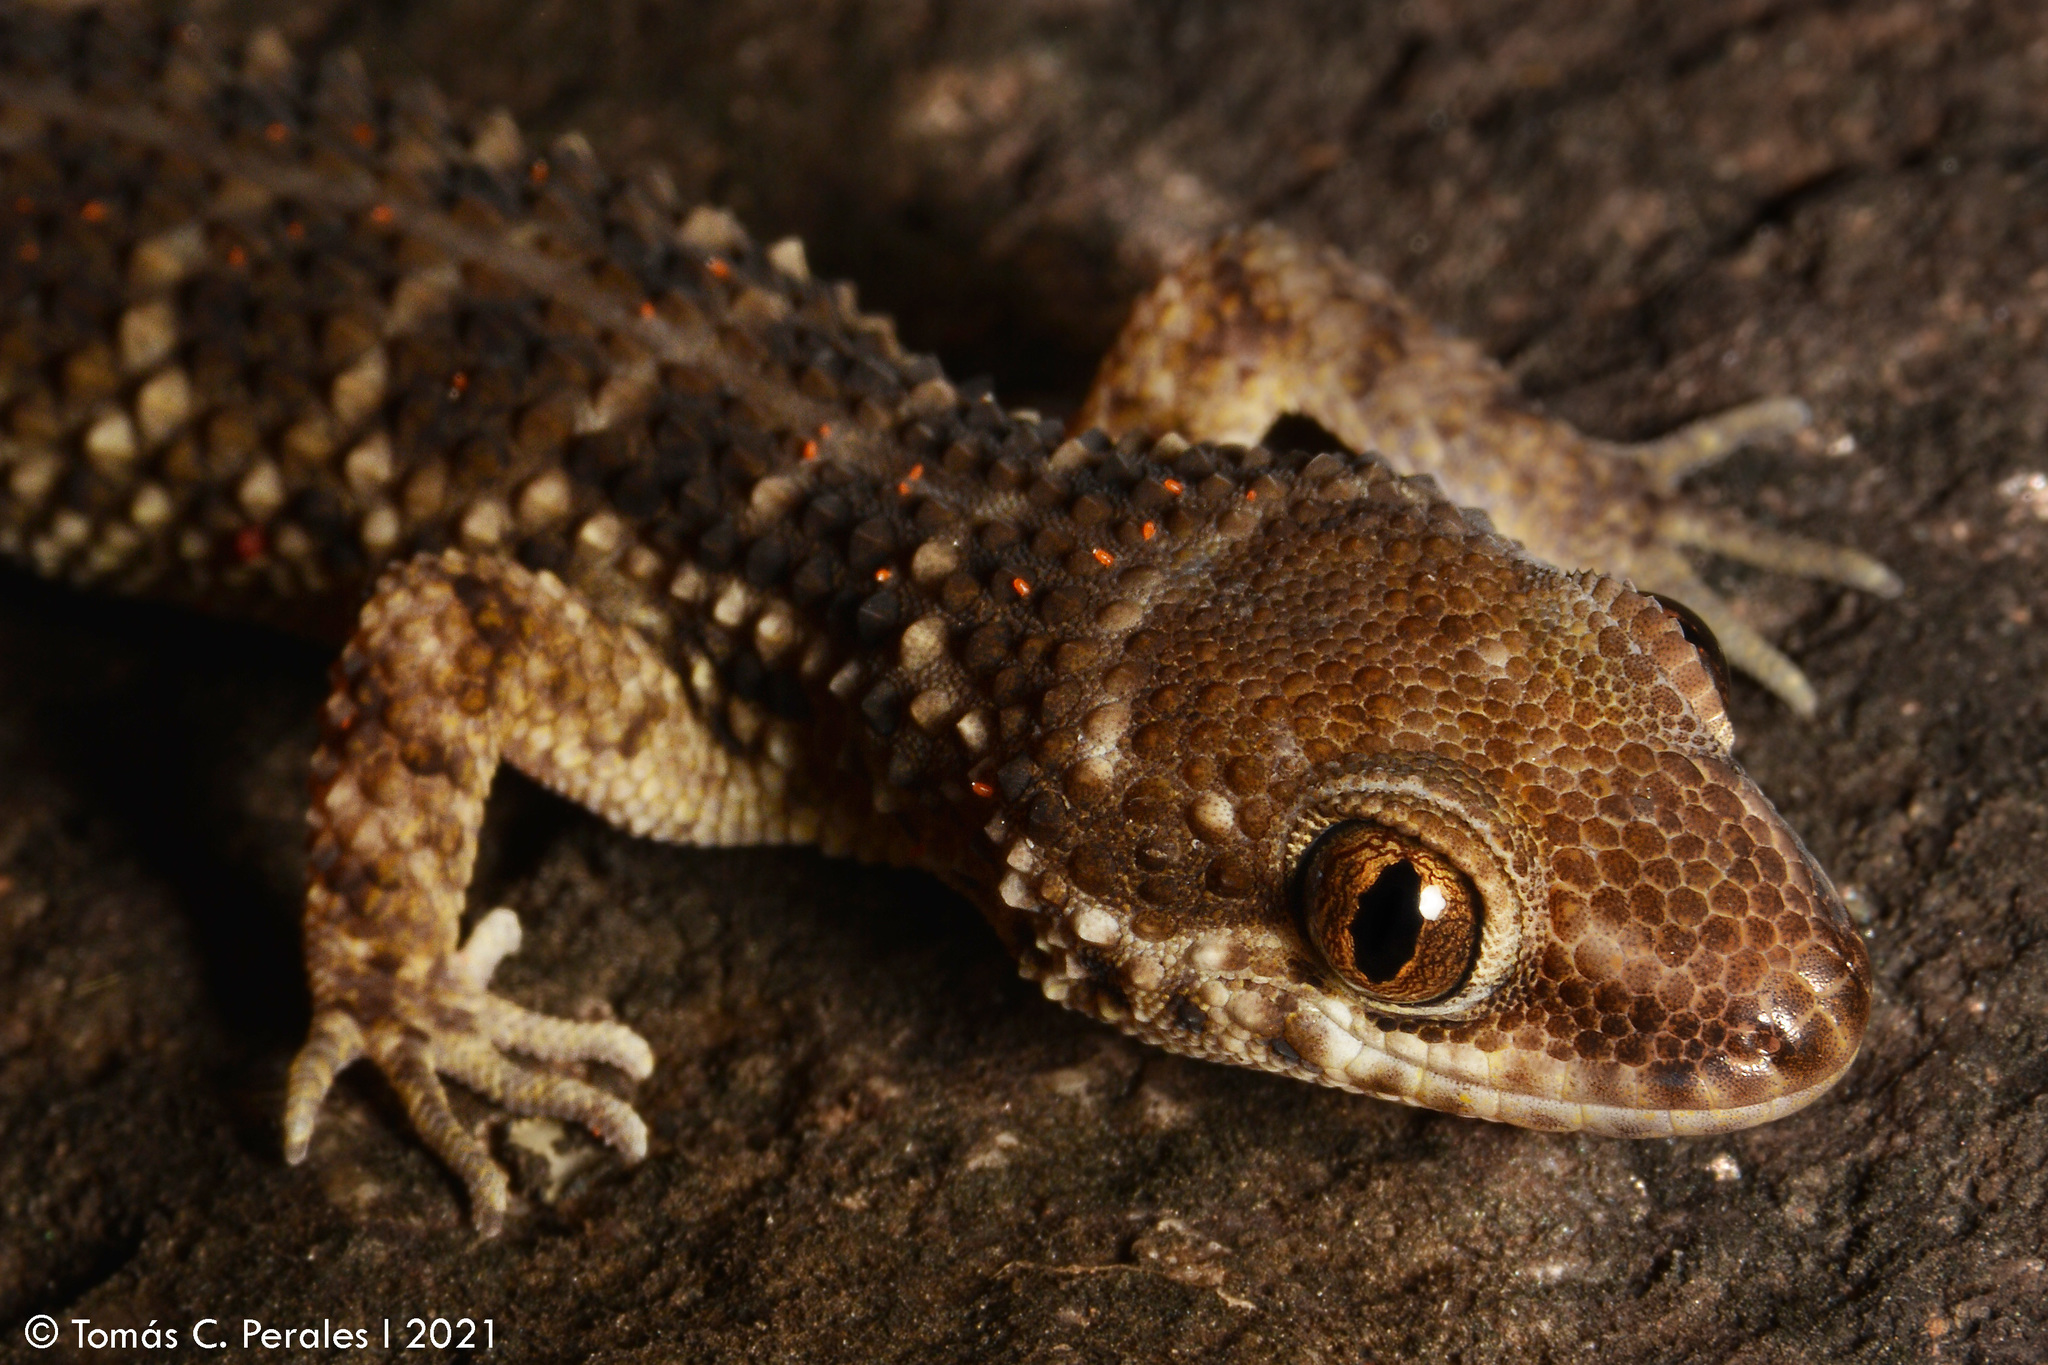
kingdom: Animalia
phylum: Chordata
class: Squamata
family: Phyllodactylidae
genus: Homonota
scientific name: Homonota horrida
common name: South american marked gecko
